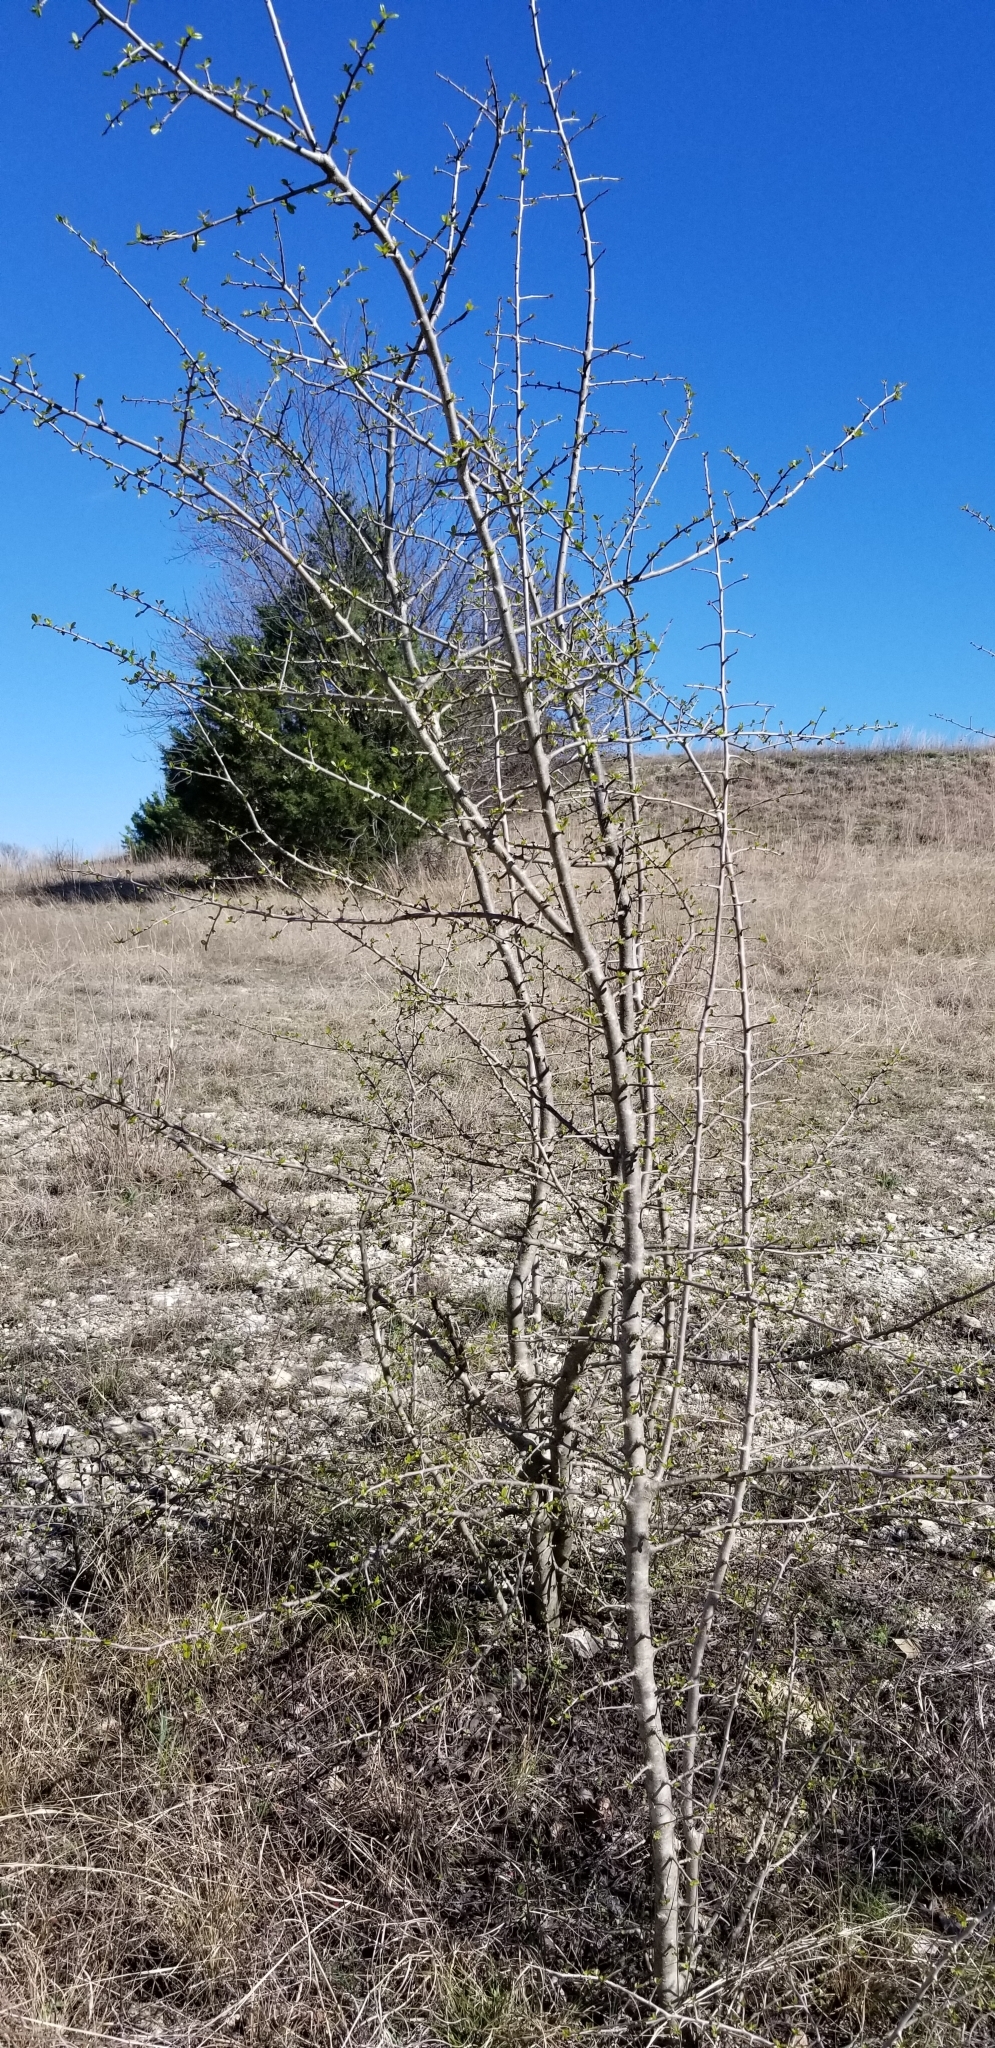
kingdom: Plantae
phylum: Tracheophyta
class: Magnoliopsida
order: Aquifoliales
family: Aquifoliaceae
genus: Ilex
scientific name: Ilex decidua
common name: Possum-haw
